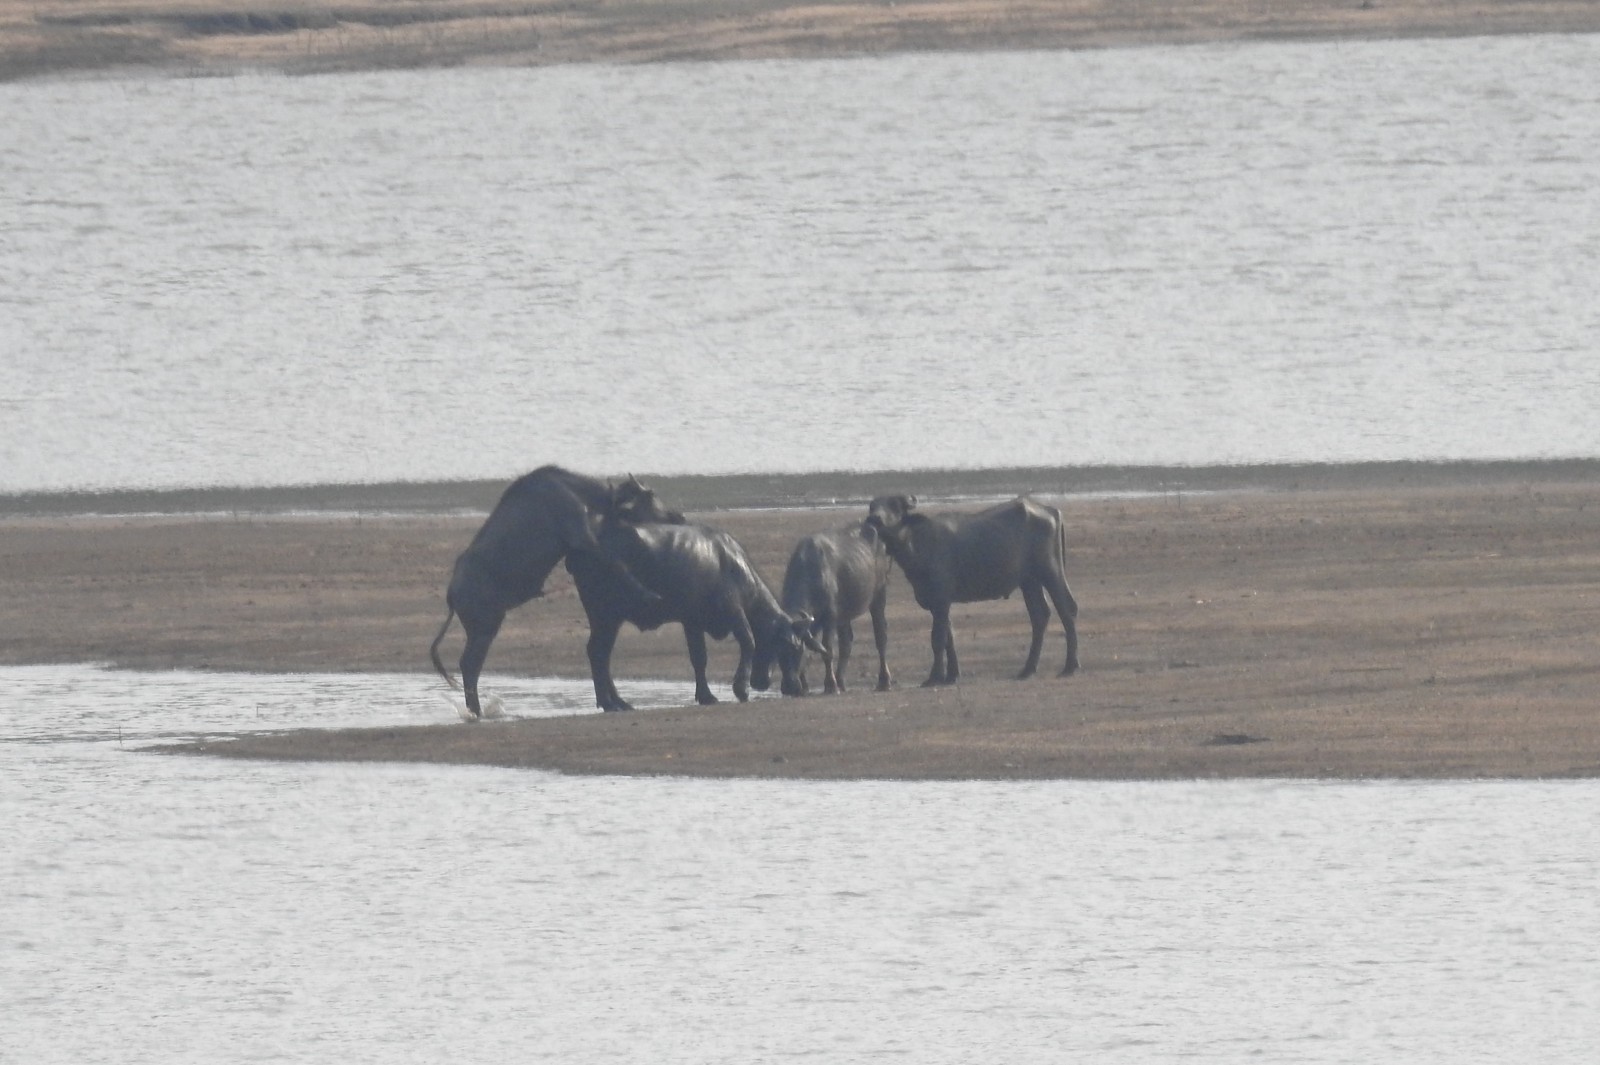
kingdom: Animalia
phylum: Chordata
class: Mammalia
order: Artiodactyla
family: Bovidae
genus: Bubalus
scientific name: Bubalus bubalis
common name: Water buffalo
